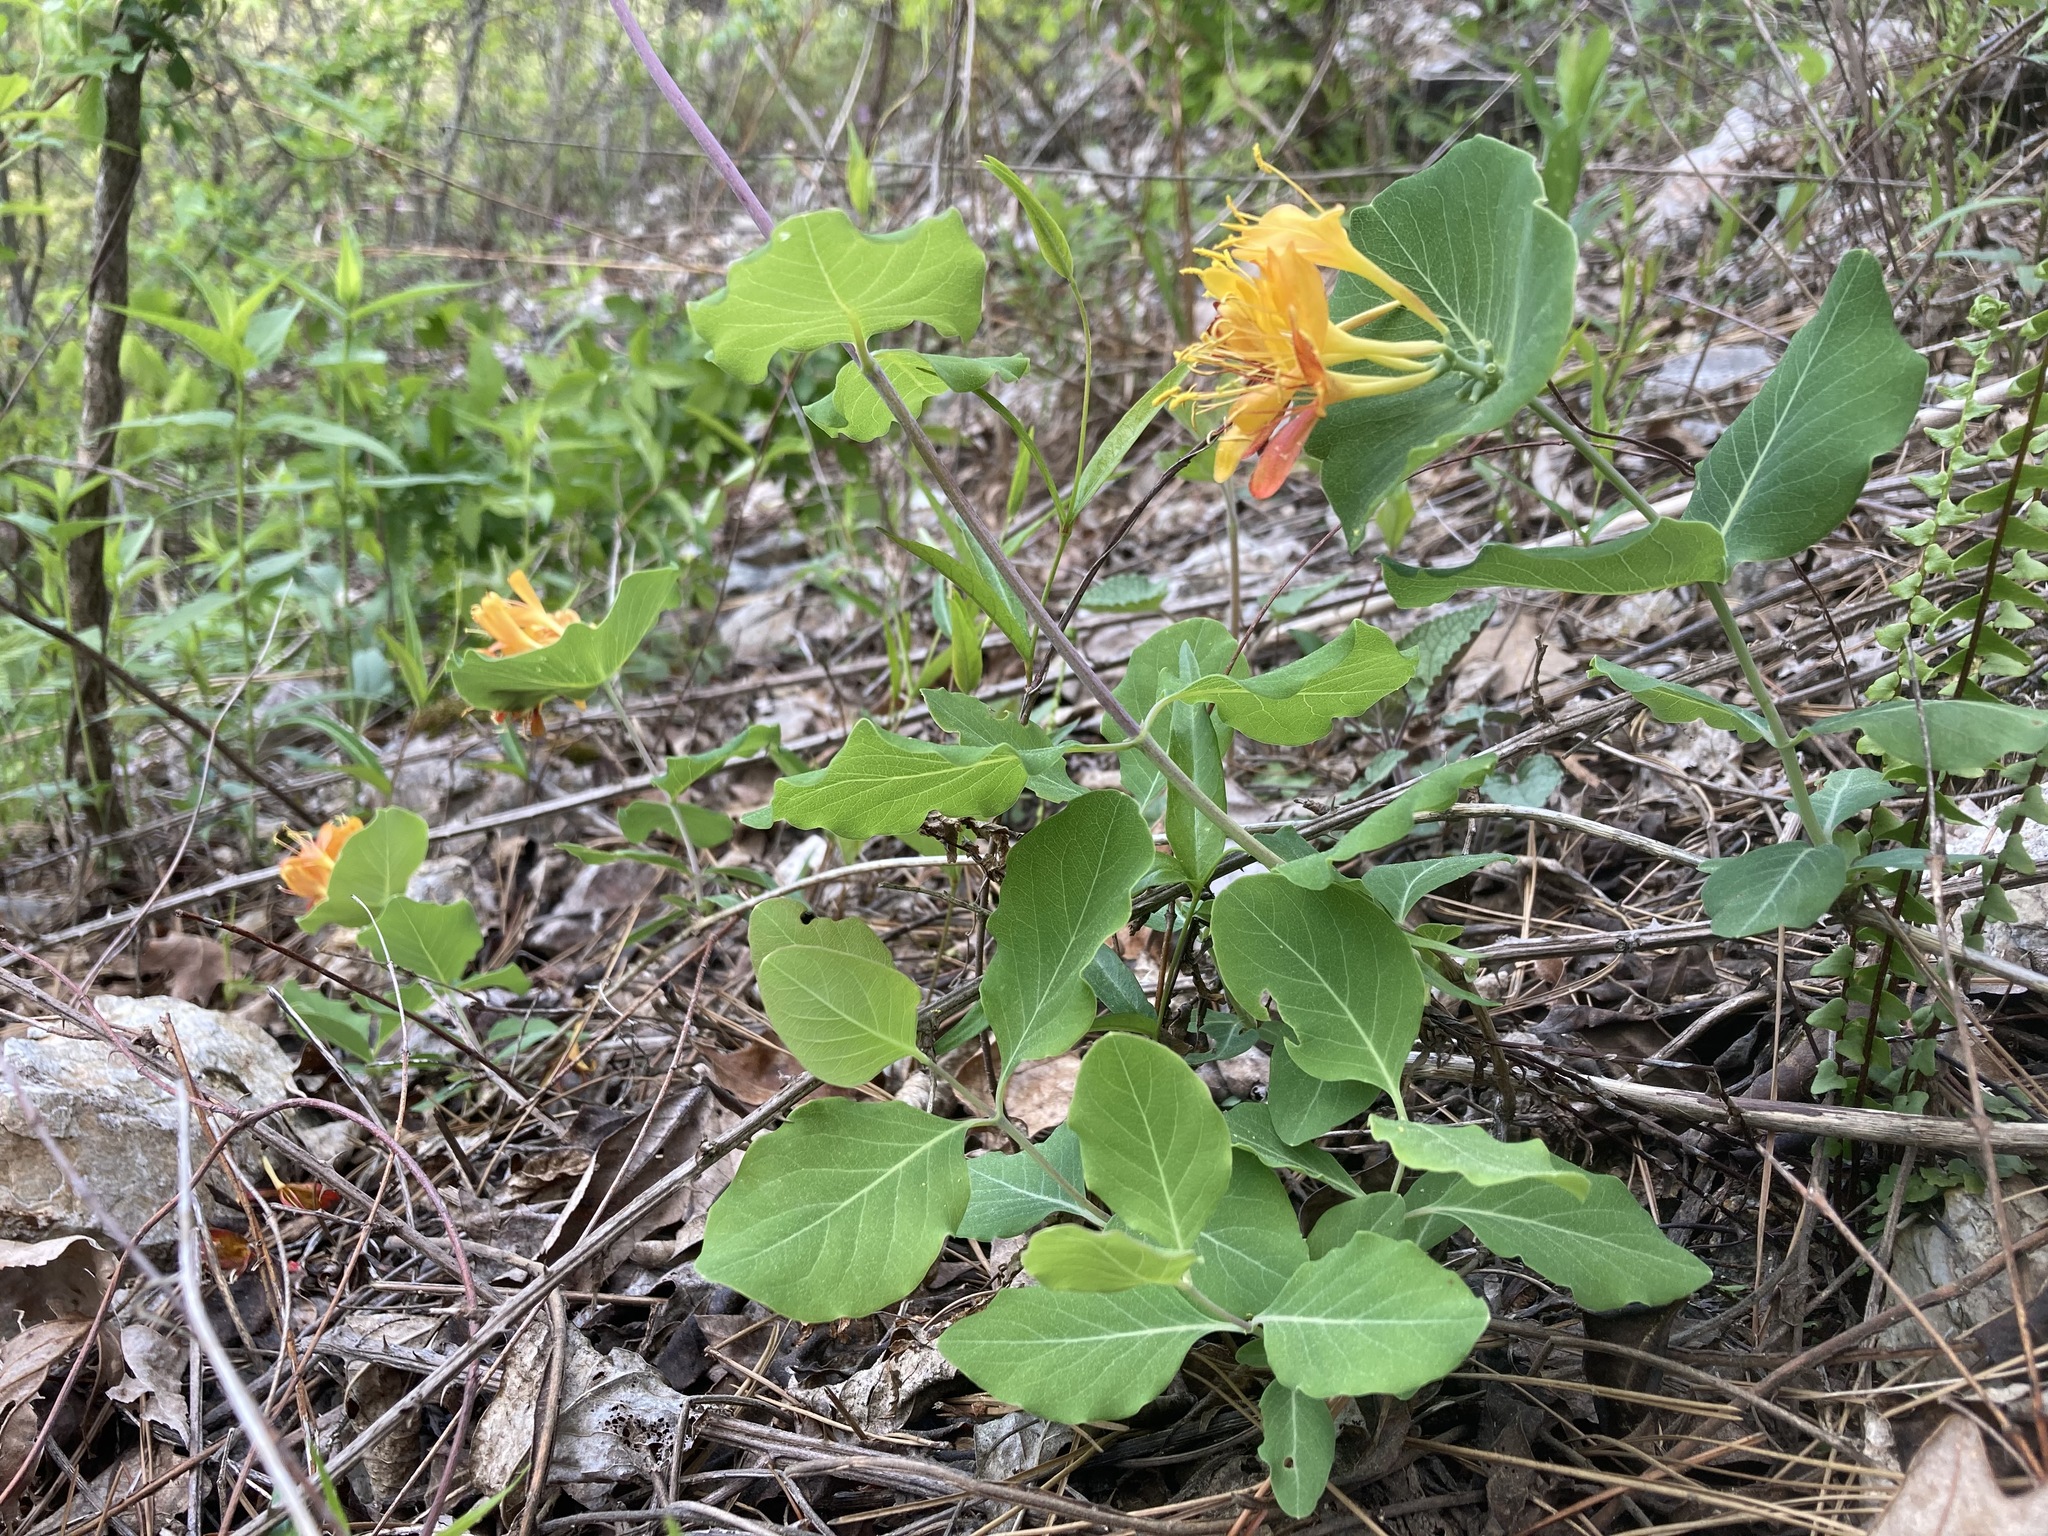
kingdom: Plantae
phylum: Tracheophyta
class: Magnoliopsida
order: Dipsacales
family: Caprifoliaceae
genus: Lonicera
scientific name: Lonicera flava
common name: Yellow honeysuckle
